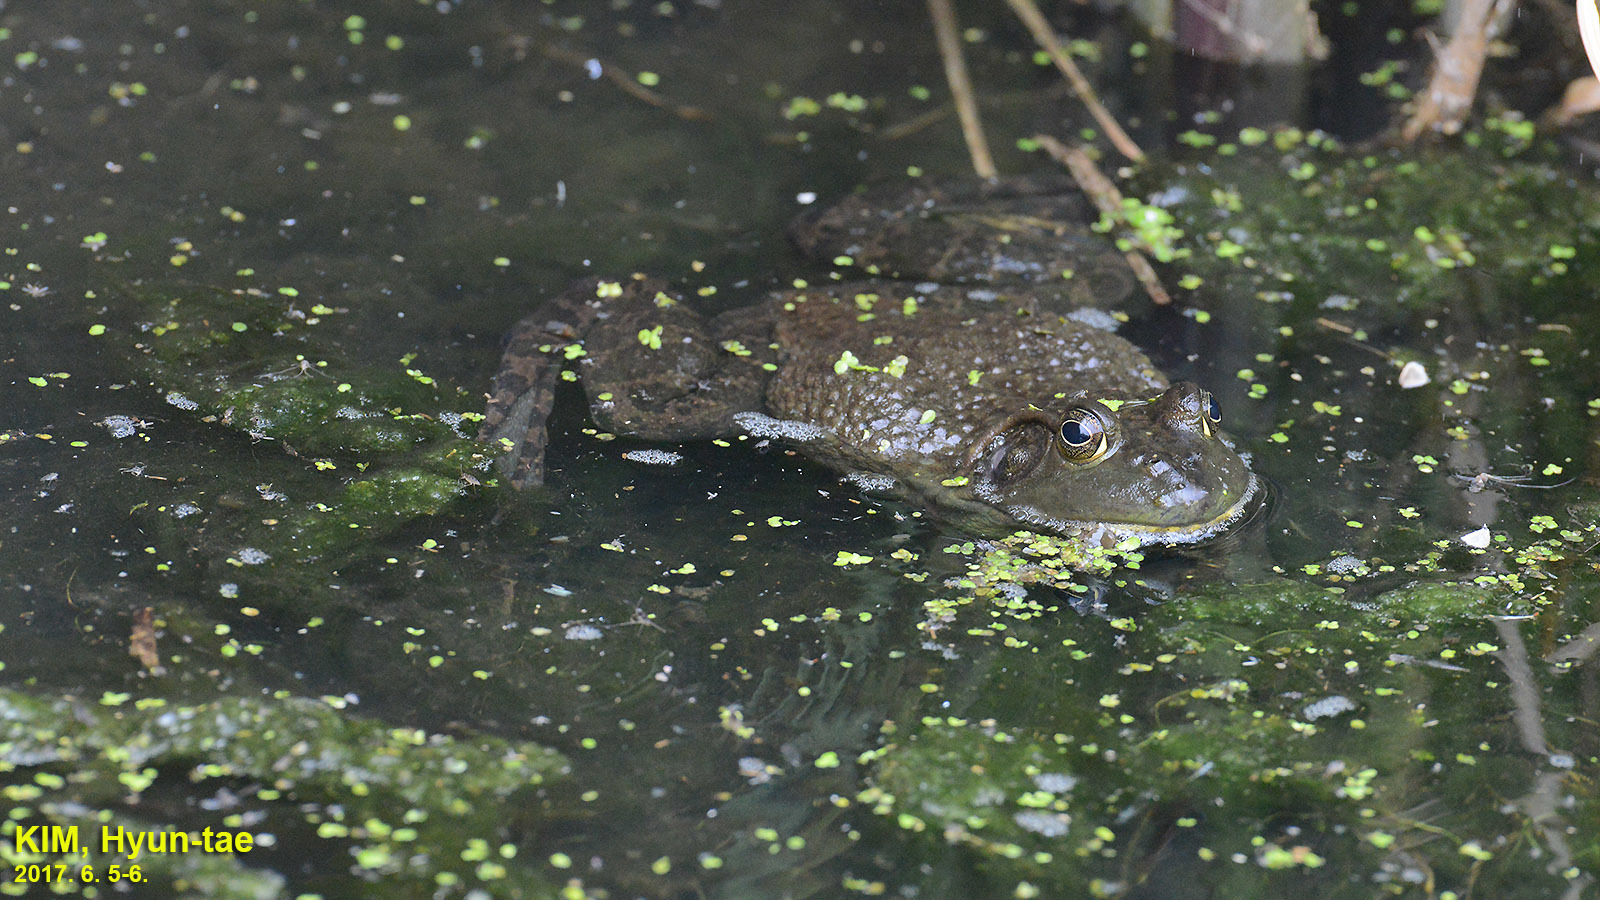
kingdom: Animalia
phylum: Chordata
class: Amphibia
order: Anura
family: Ranidae
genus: Lithobates
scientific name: Lithobates catesbeianus
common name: American bullfrog
